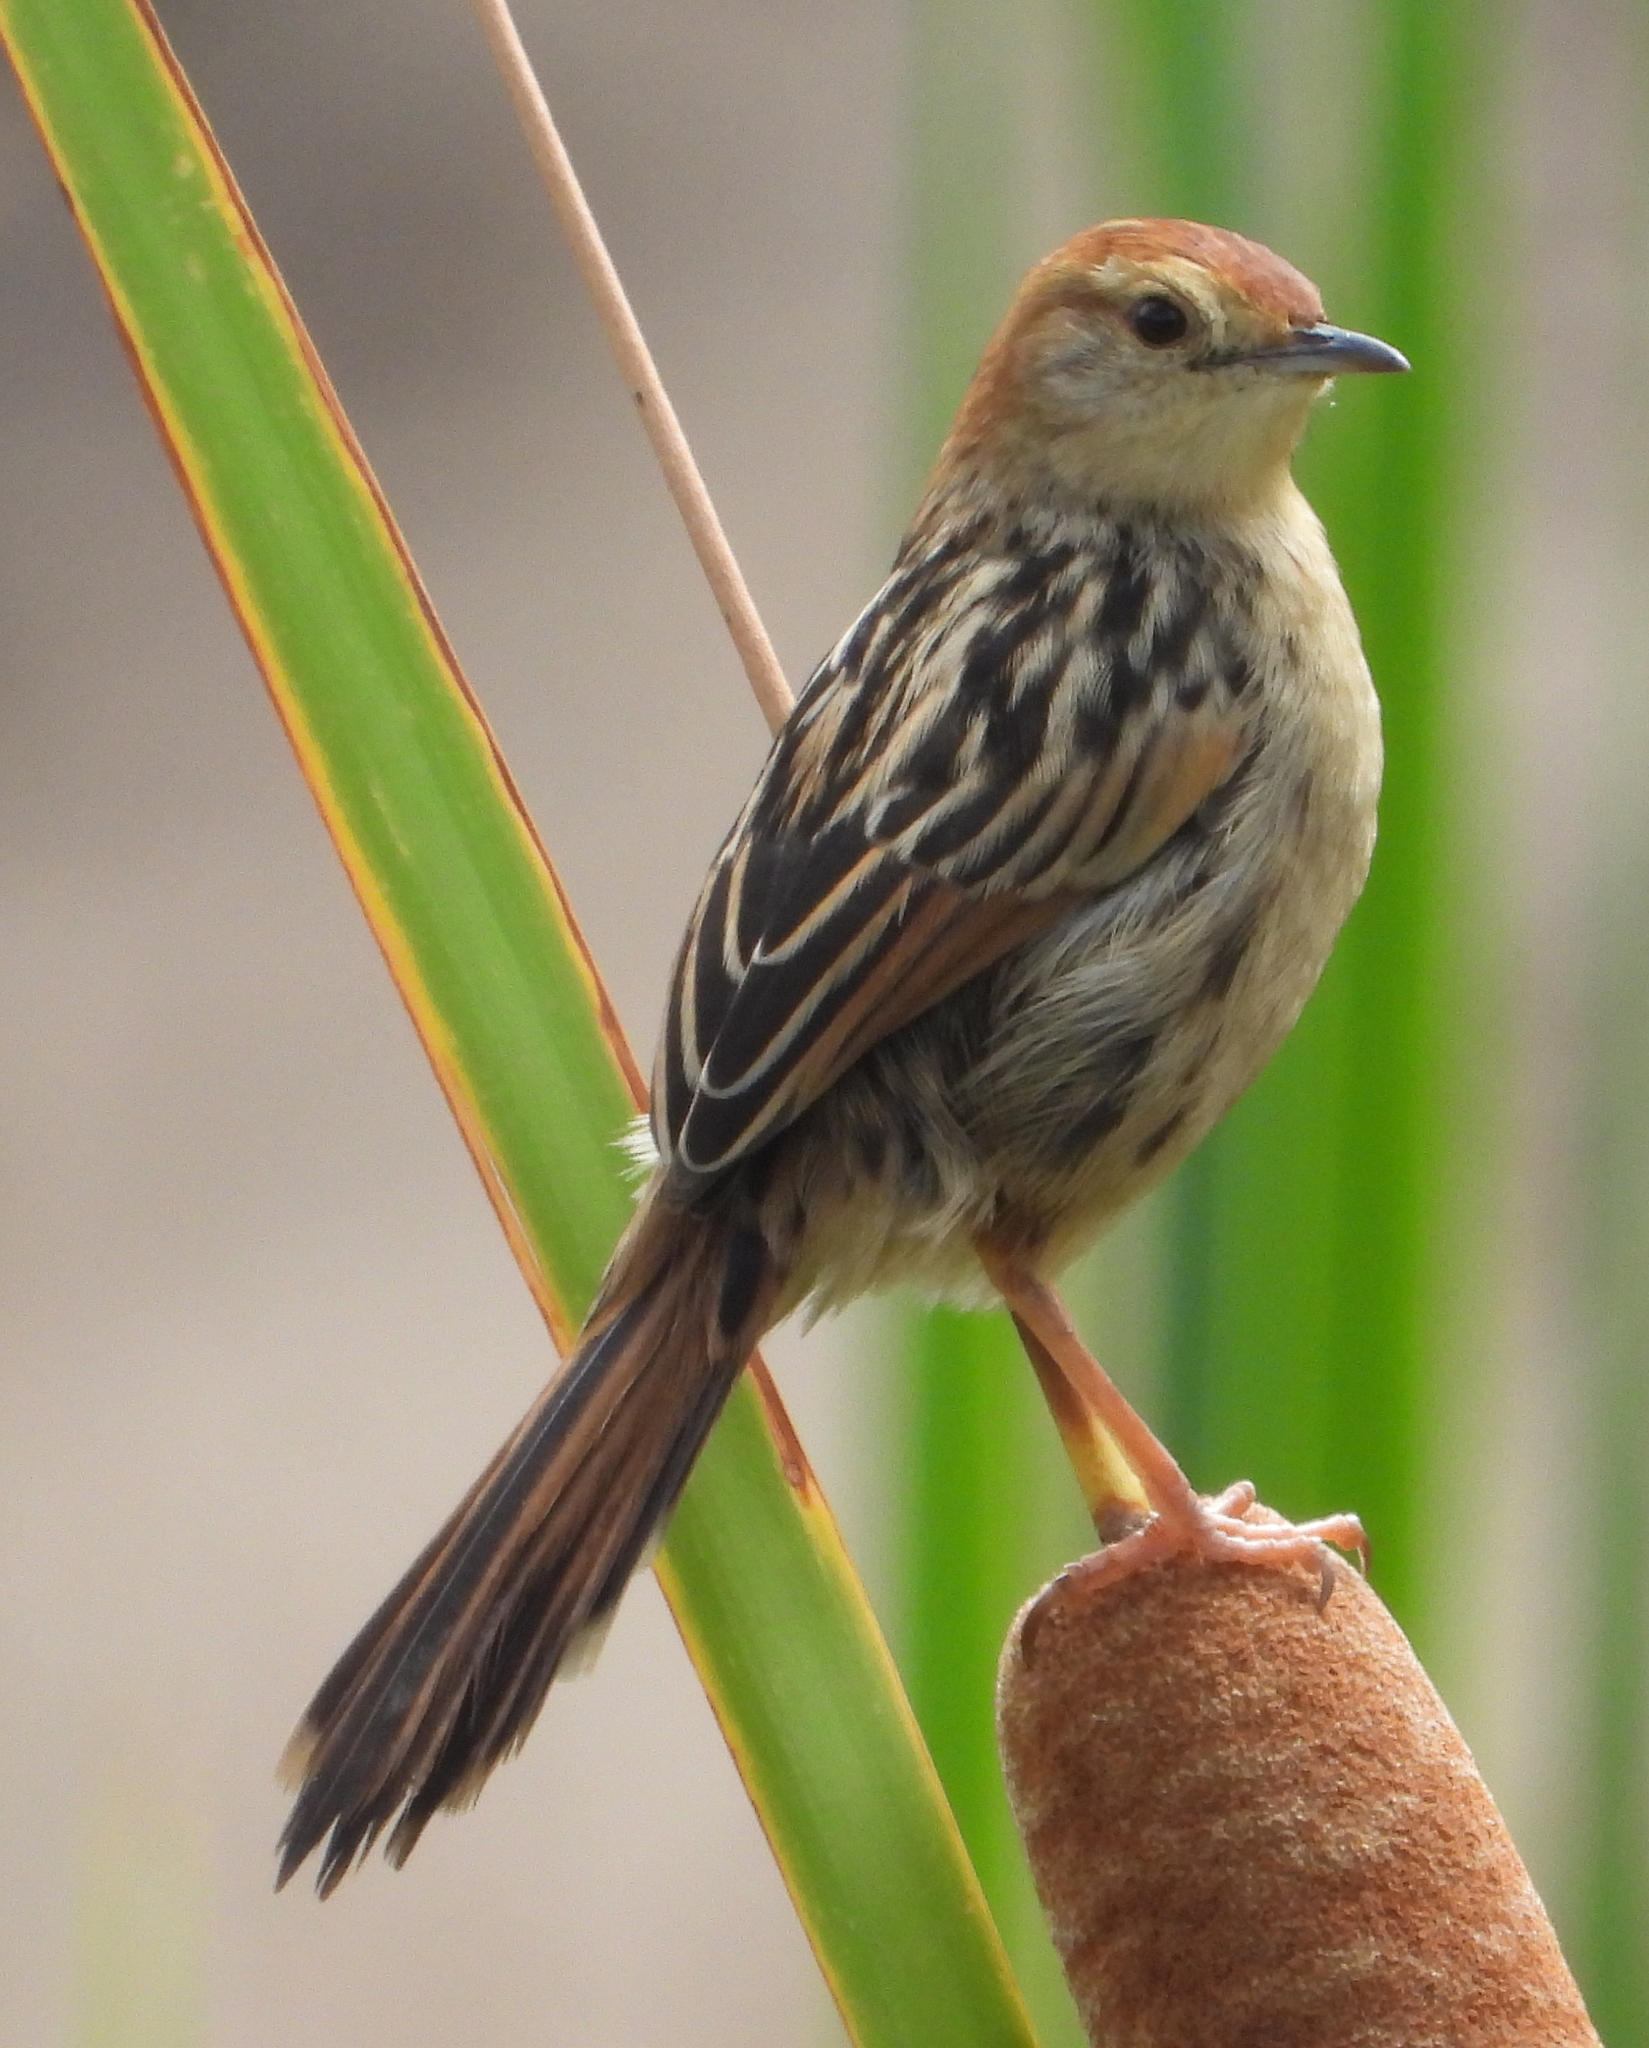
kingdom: Animalia
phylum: Chordata
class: Aves
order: Passeriformes
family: Cisticolidae
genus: Cisticola
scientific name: Cisticola tinniens
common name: Levaillant's cisticola
